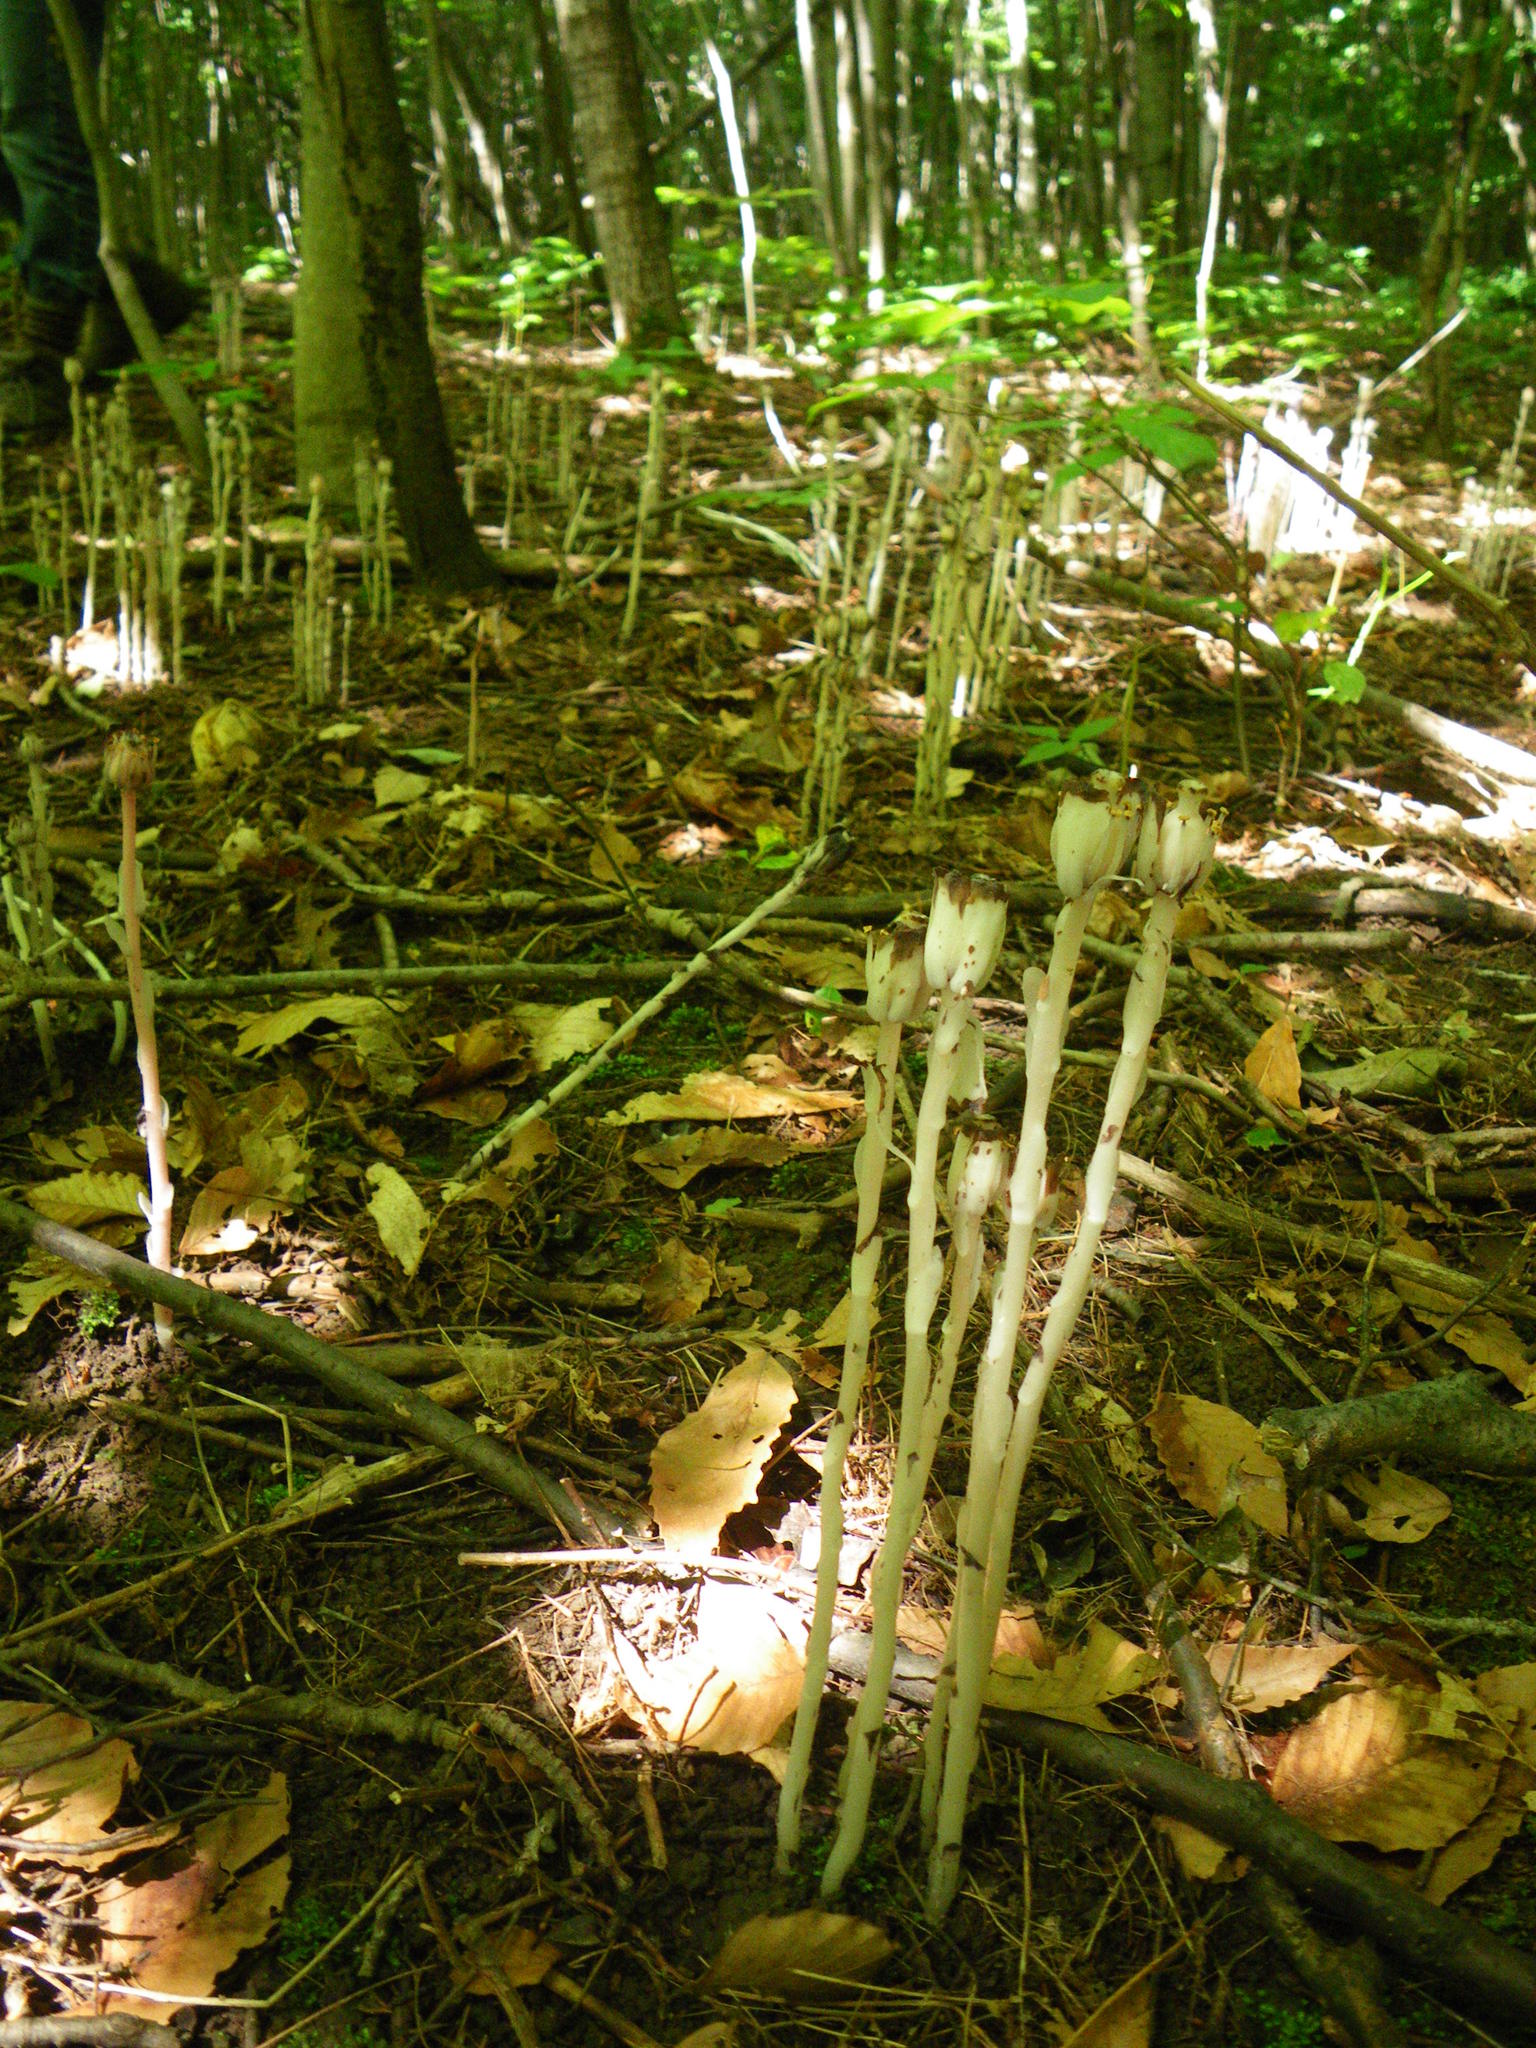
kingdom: Plantae
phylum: Tracheophyta
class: Magnoliopsida
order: Ericales
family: Ericaceae
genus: Monotropa
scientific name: Monotropa uniflora
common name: Convulsion root
